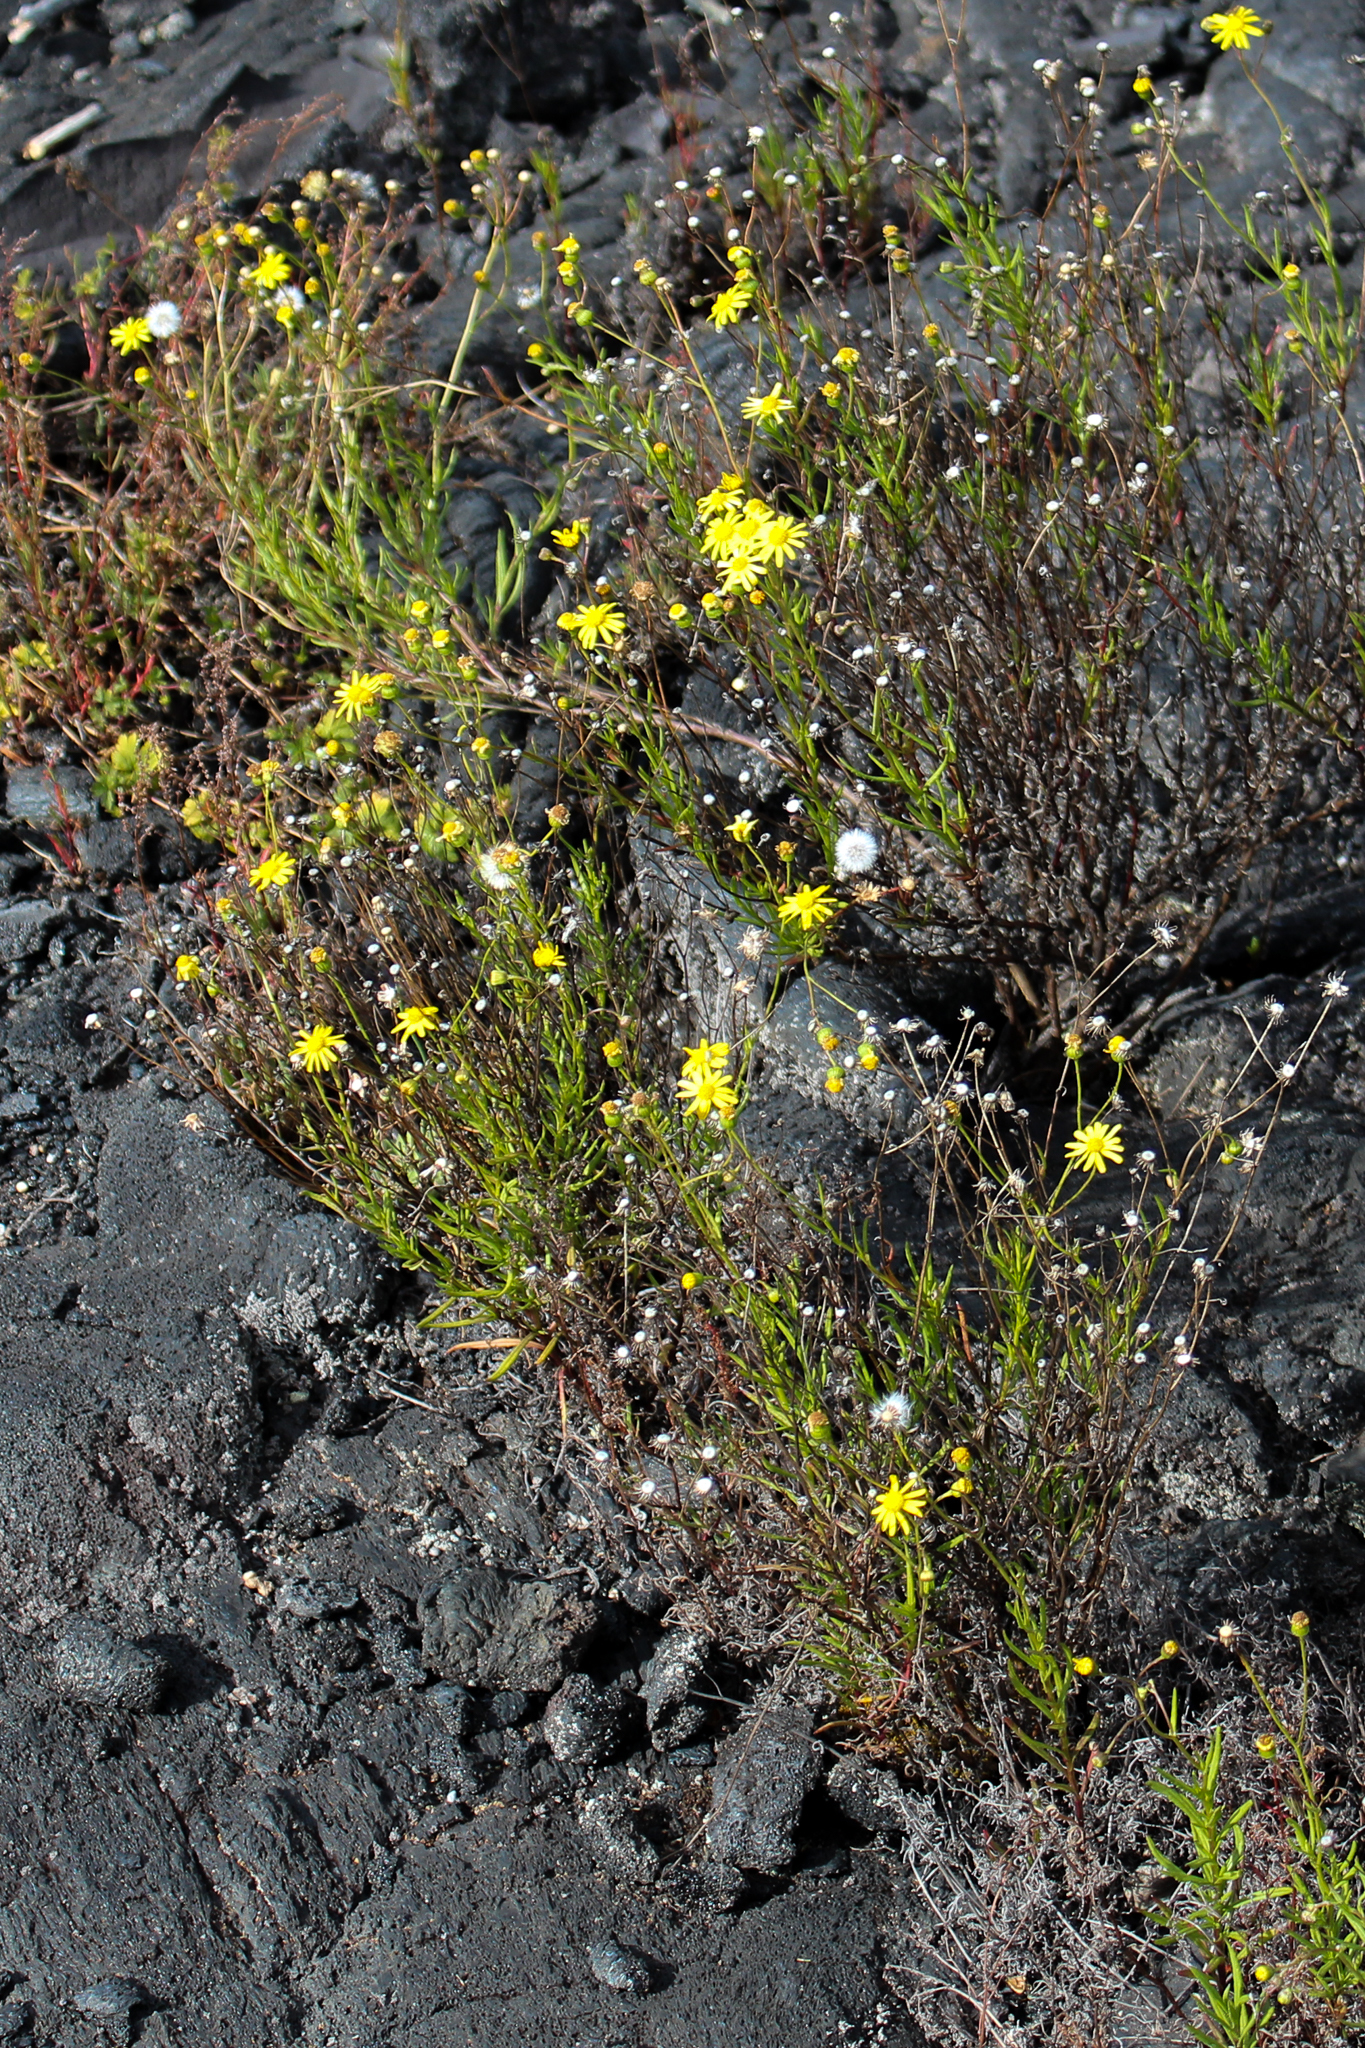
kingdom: Plantae
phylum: Tracheophyta
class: Magnoliopsida
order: Asterales
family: Asteraceae
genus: Senecio
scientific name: Senecio madagascariensis
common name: Madagascar ragwort
